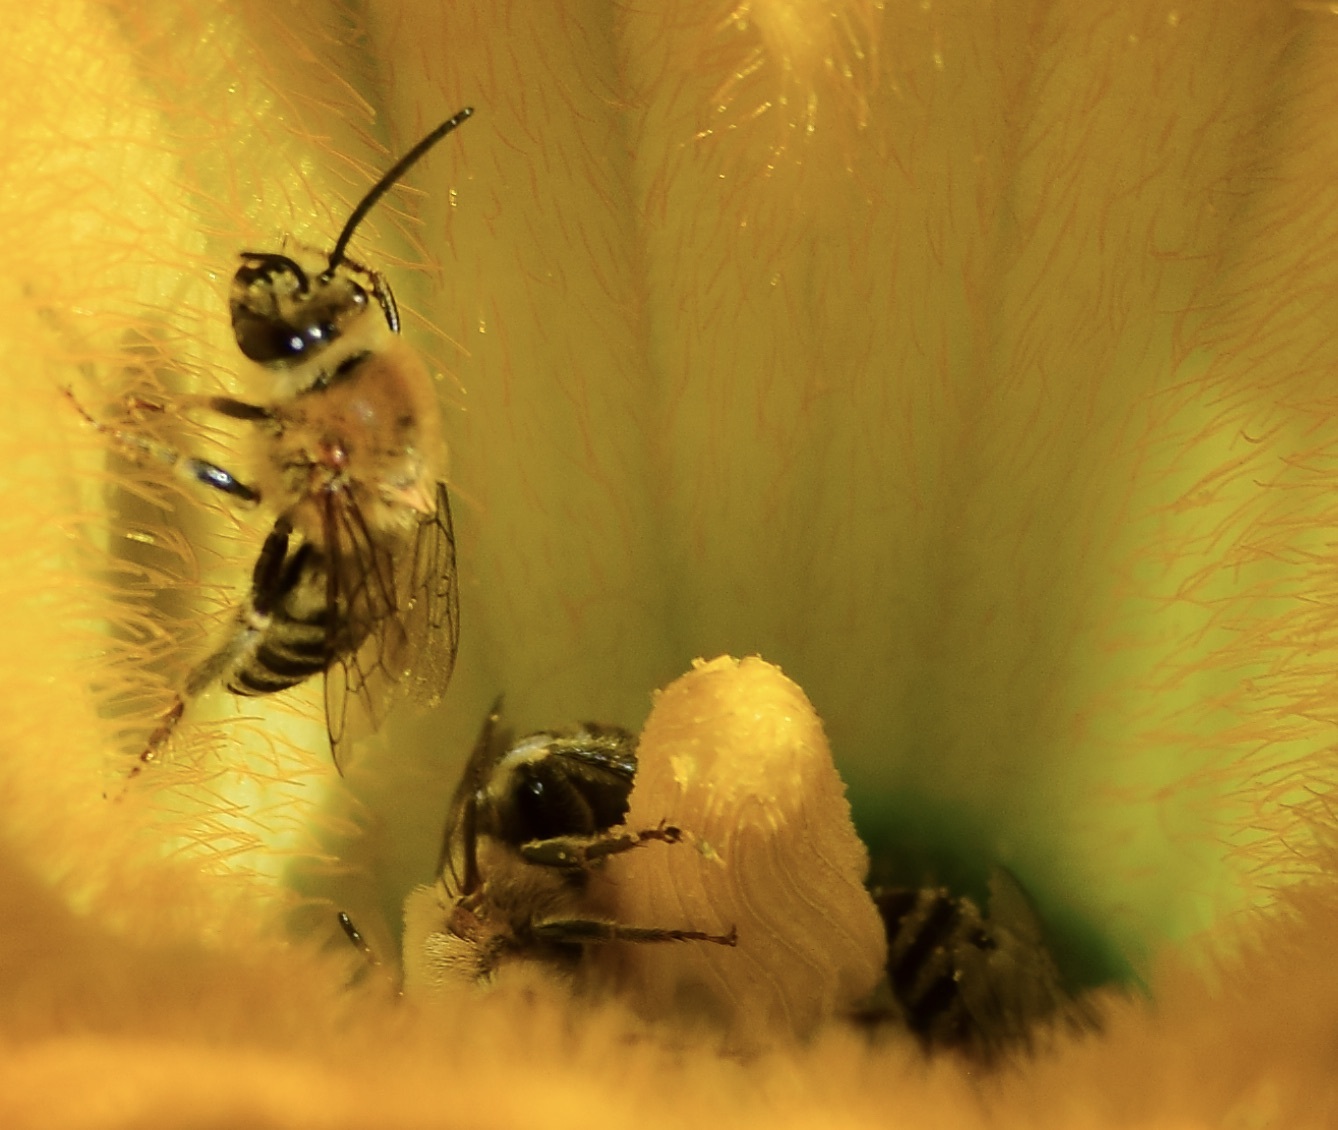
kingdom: Animalia
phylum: Arthropoda
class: Insecta
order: Hymenoptera
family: Apidae
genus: Peponapis
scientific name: Peponapis pruinosa
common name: Pruinose squash bee
